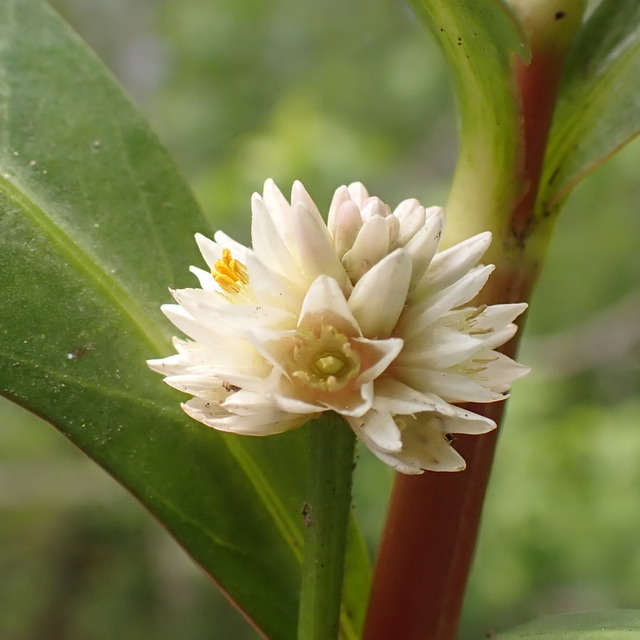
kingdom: Plantae
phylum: Tracheophyta
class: Magnoliopsida
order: Caryophyllales
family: Amaranthaceae
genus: Alternanthera
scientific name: Alternanthera philoxeroides
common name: Alligatorweed
